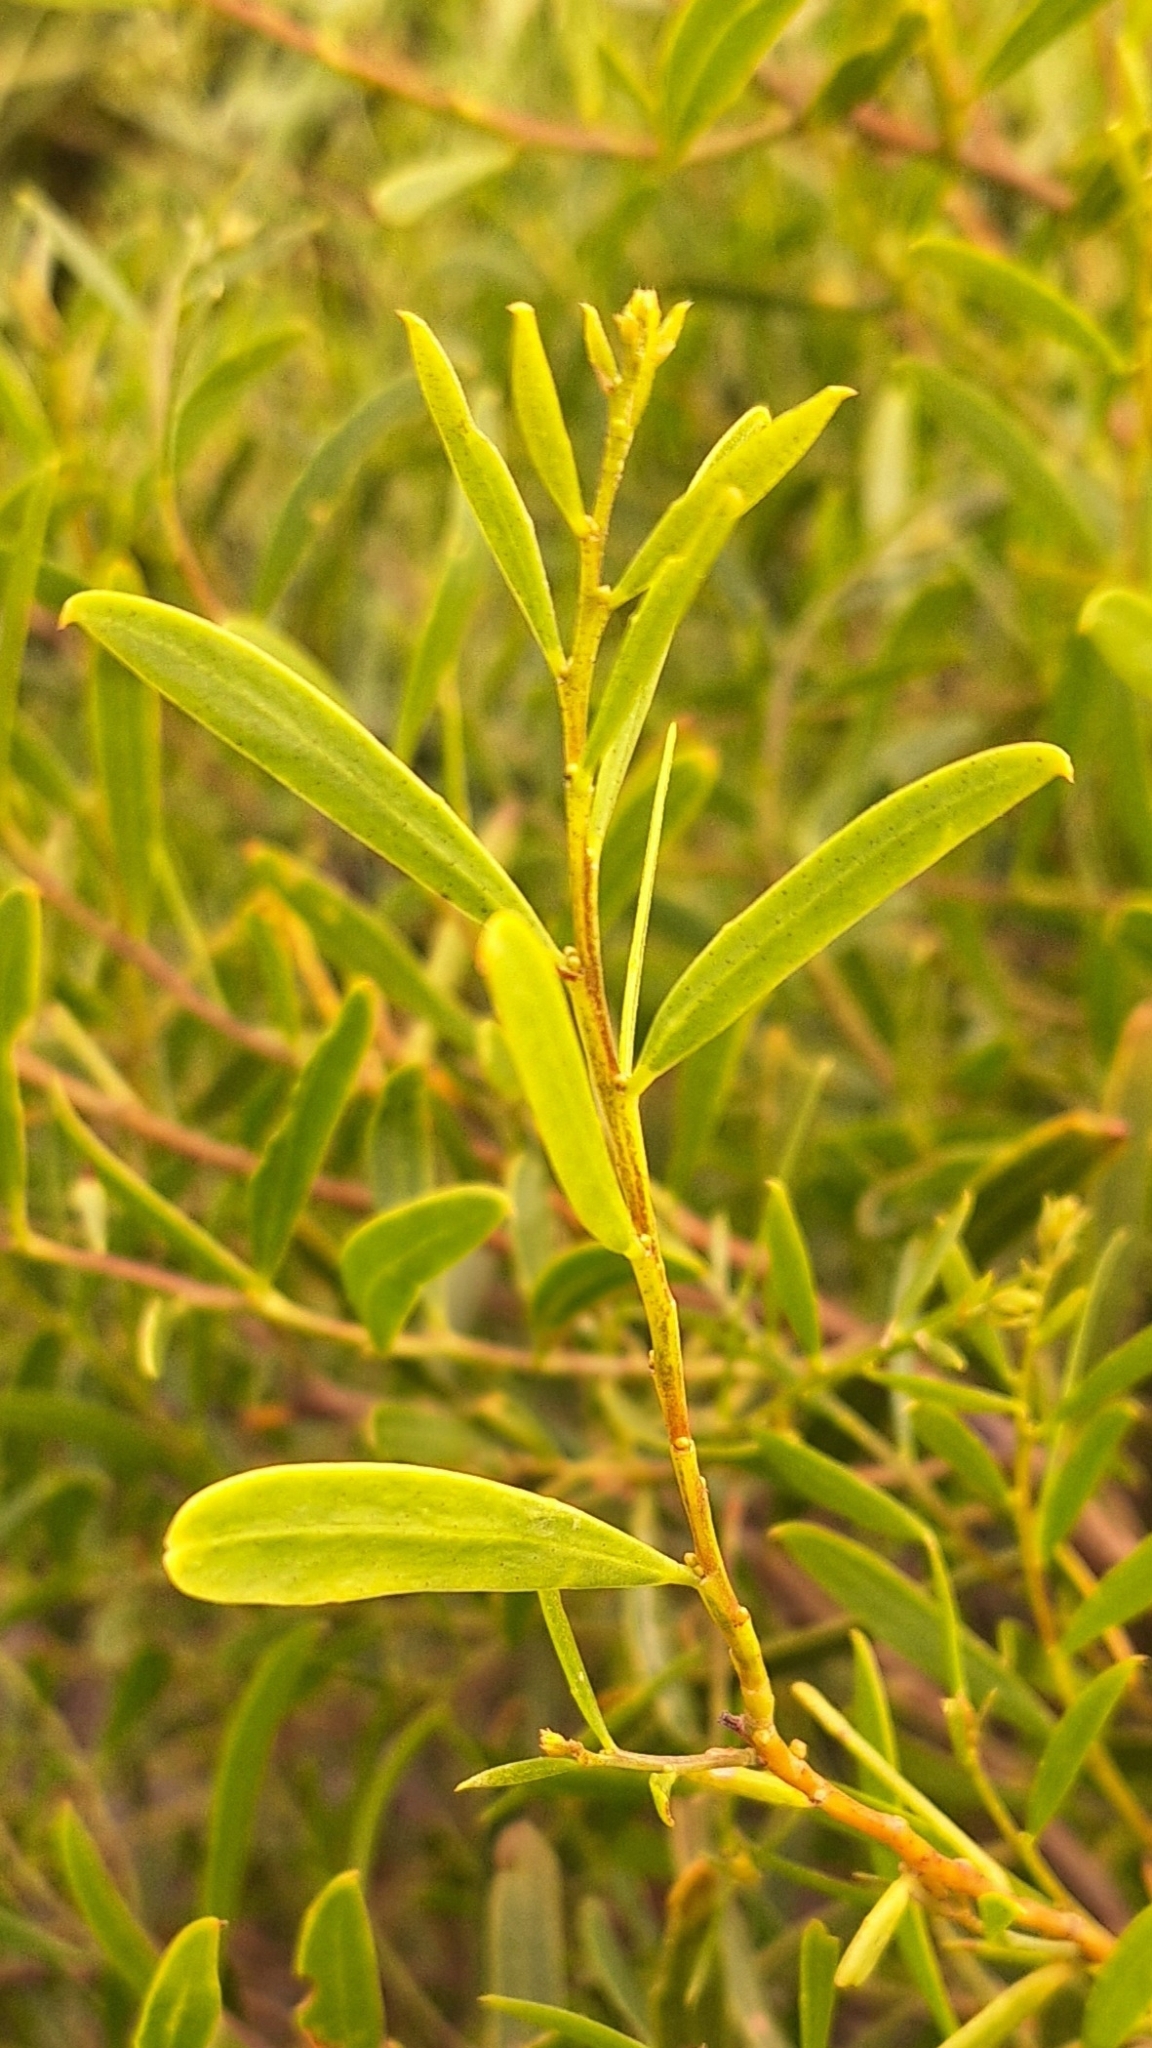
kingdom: Plantae
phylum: Tracheophyta
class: Magnoliopsida
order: Fabales
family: Fabaceae
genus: Acacia
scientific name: Acacia ligulata
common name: Dune wattle
